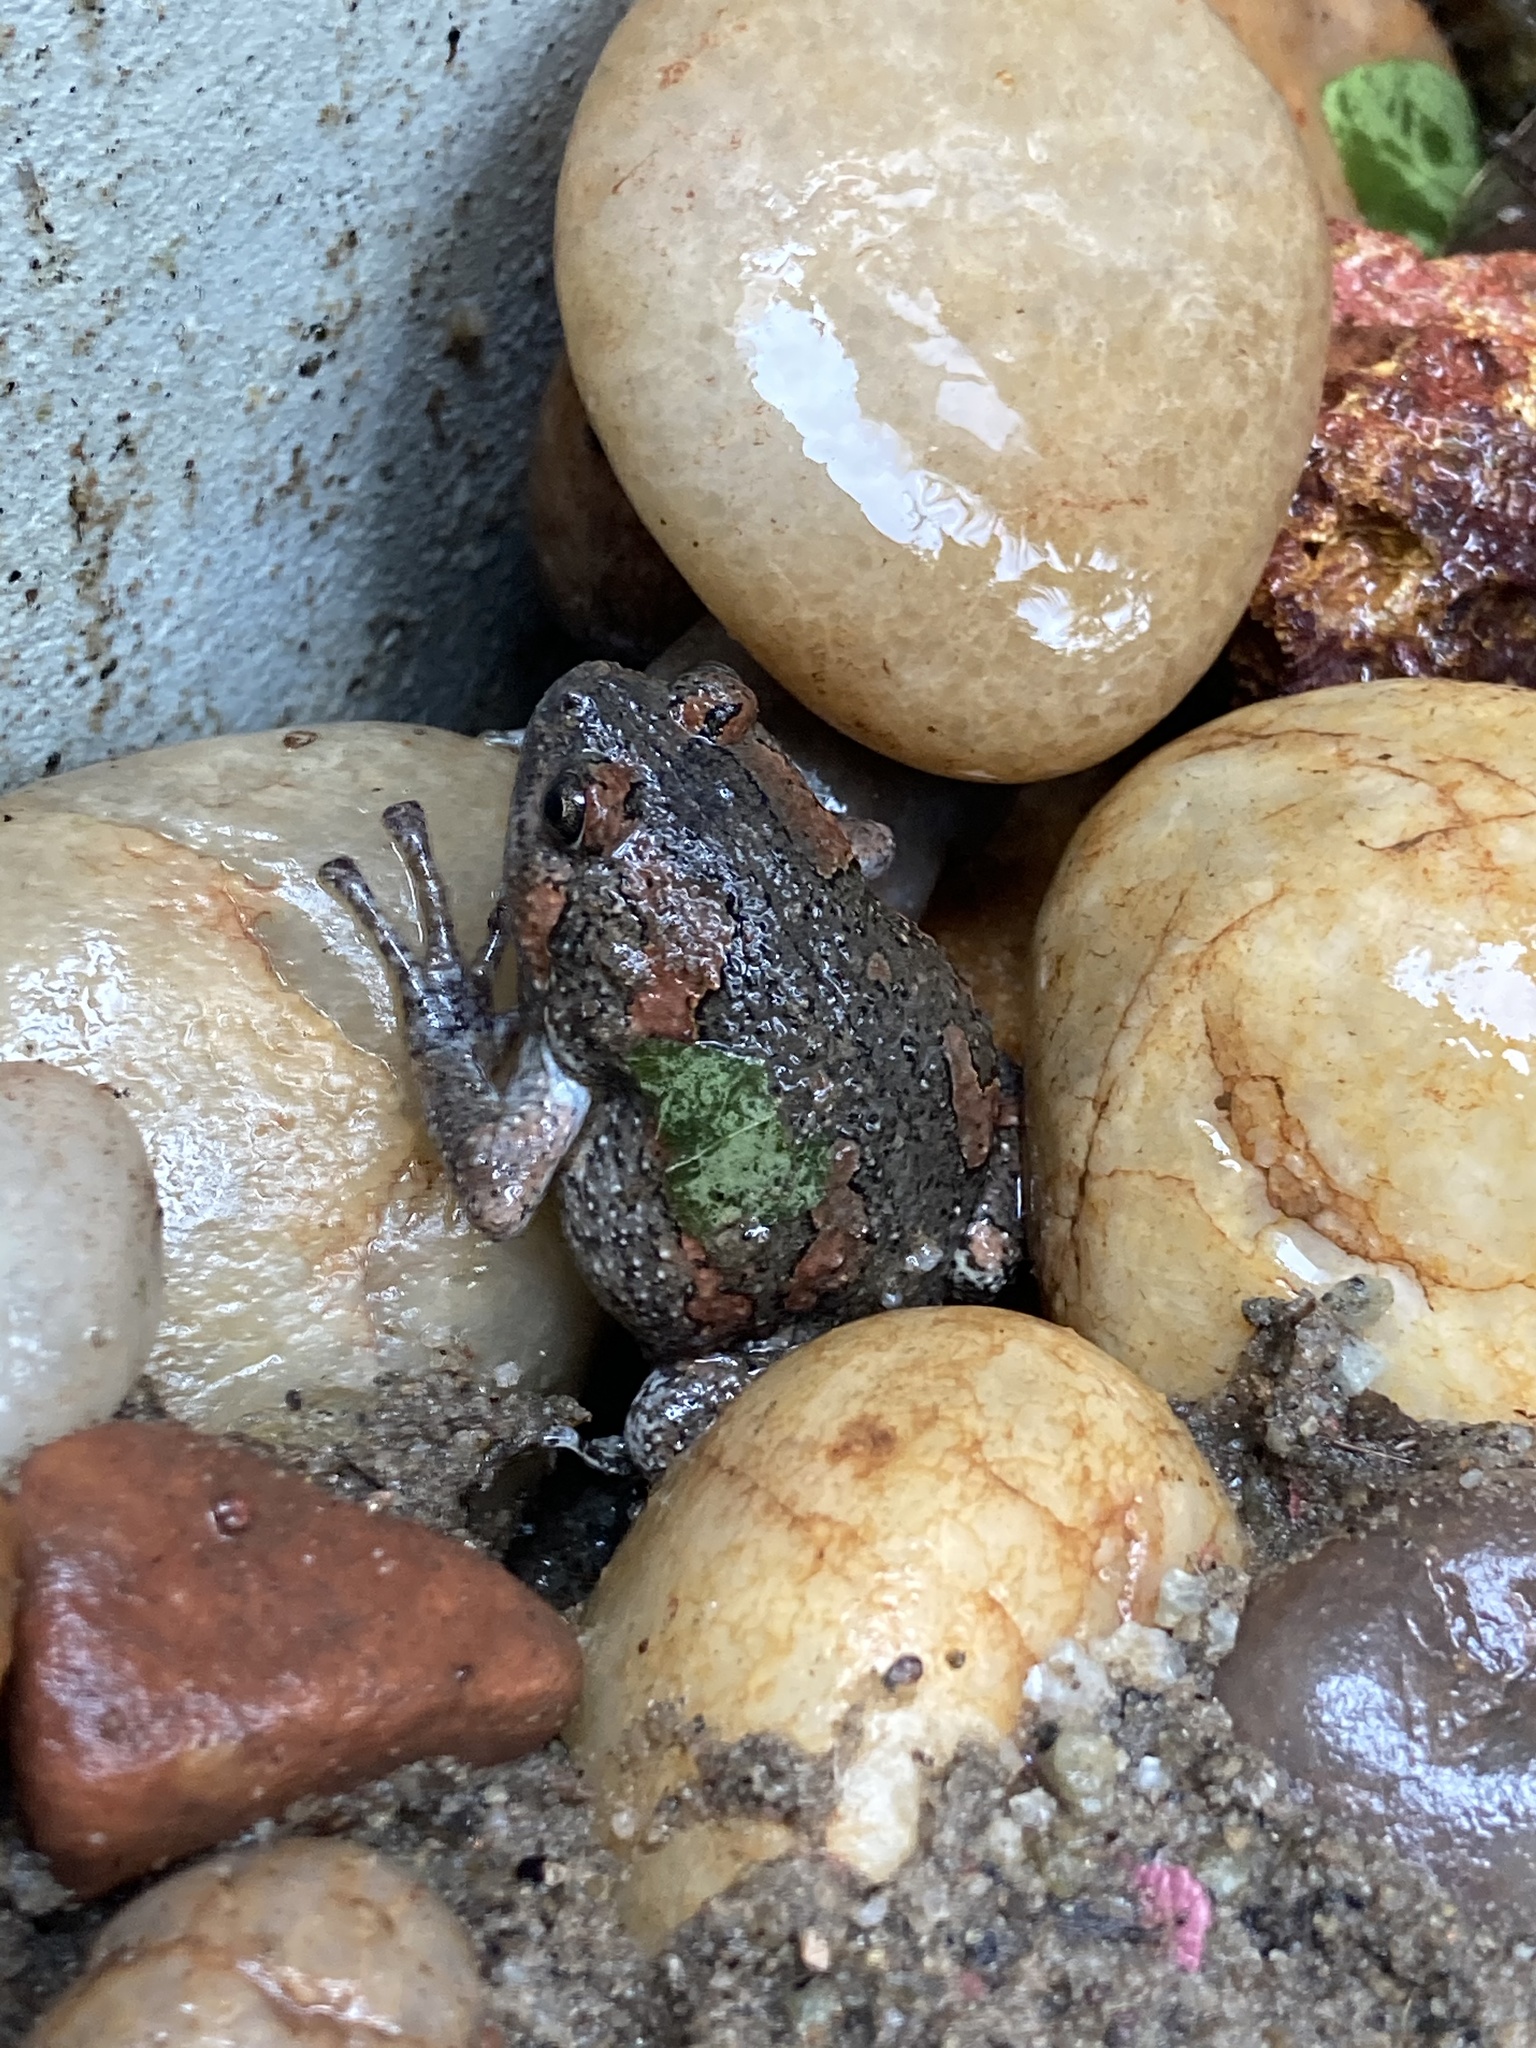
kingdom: Animalia
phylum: Chordata
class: Amphibia
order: Anura
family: Microhylidae
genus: Uperodon
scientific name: Uperodon taprobanicus
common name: Ceylon kaloula
